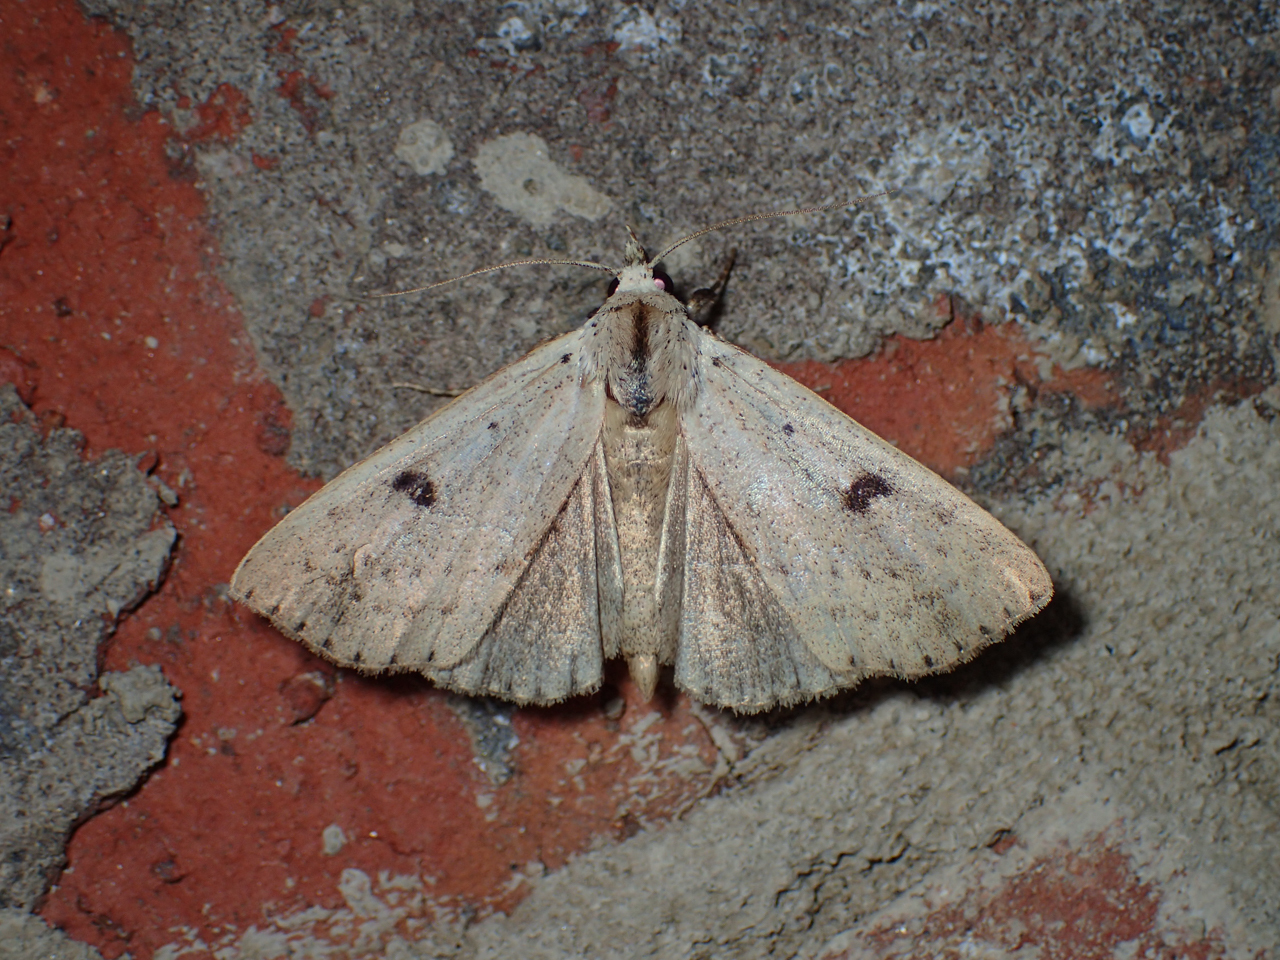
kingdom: Animalia
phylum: Arthropoda
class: Insecta
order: Lepidoptera
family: Erebidae
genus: Scolecocampa
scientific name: Scolecocampa liburna
